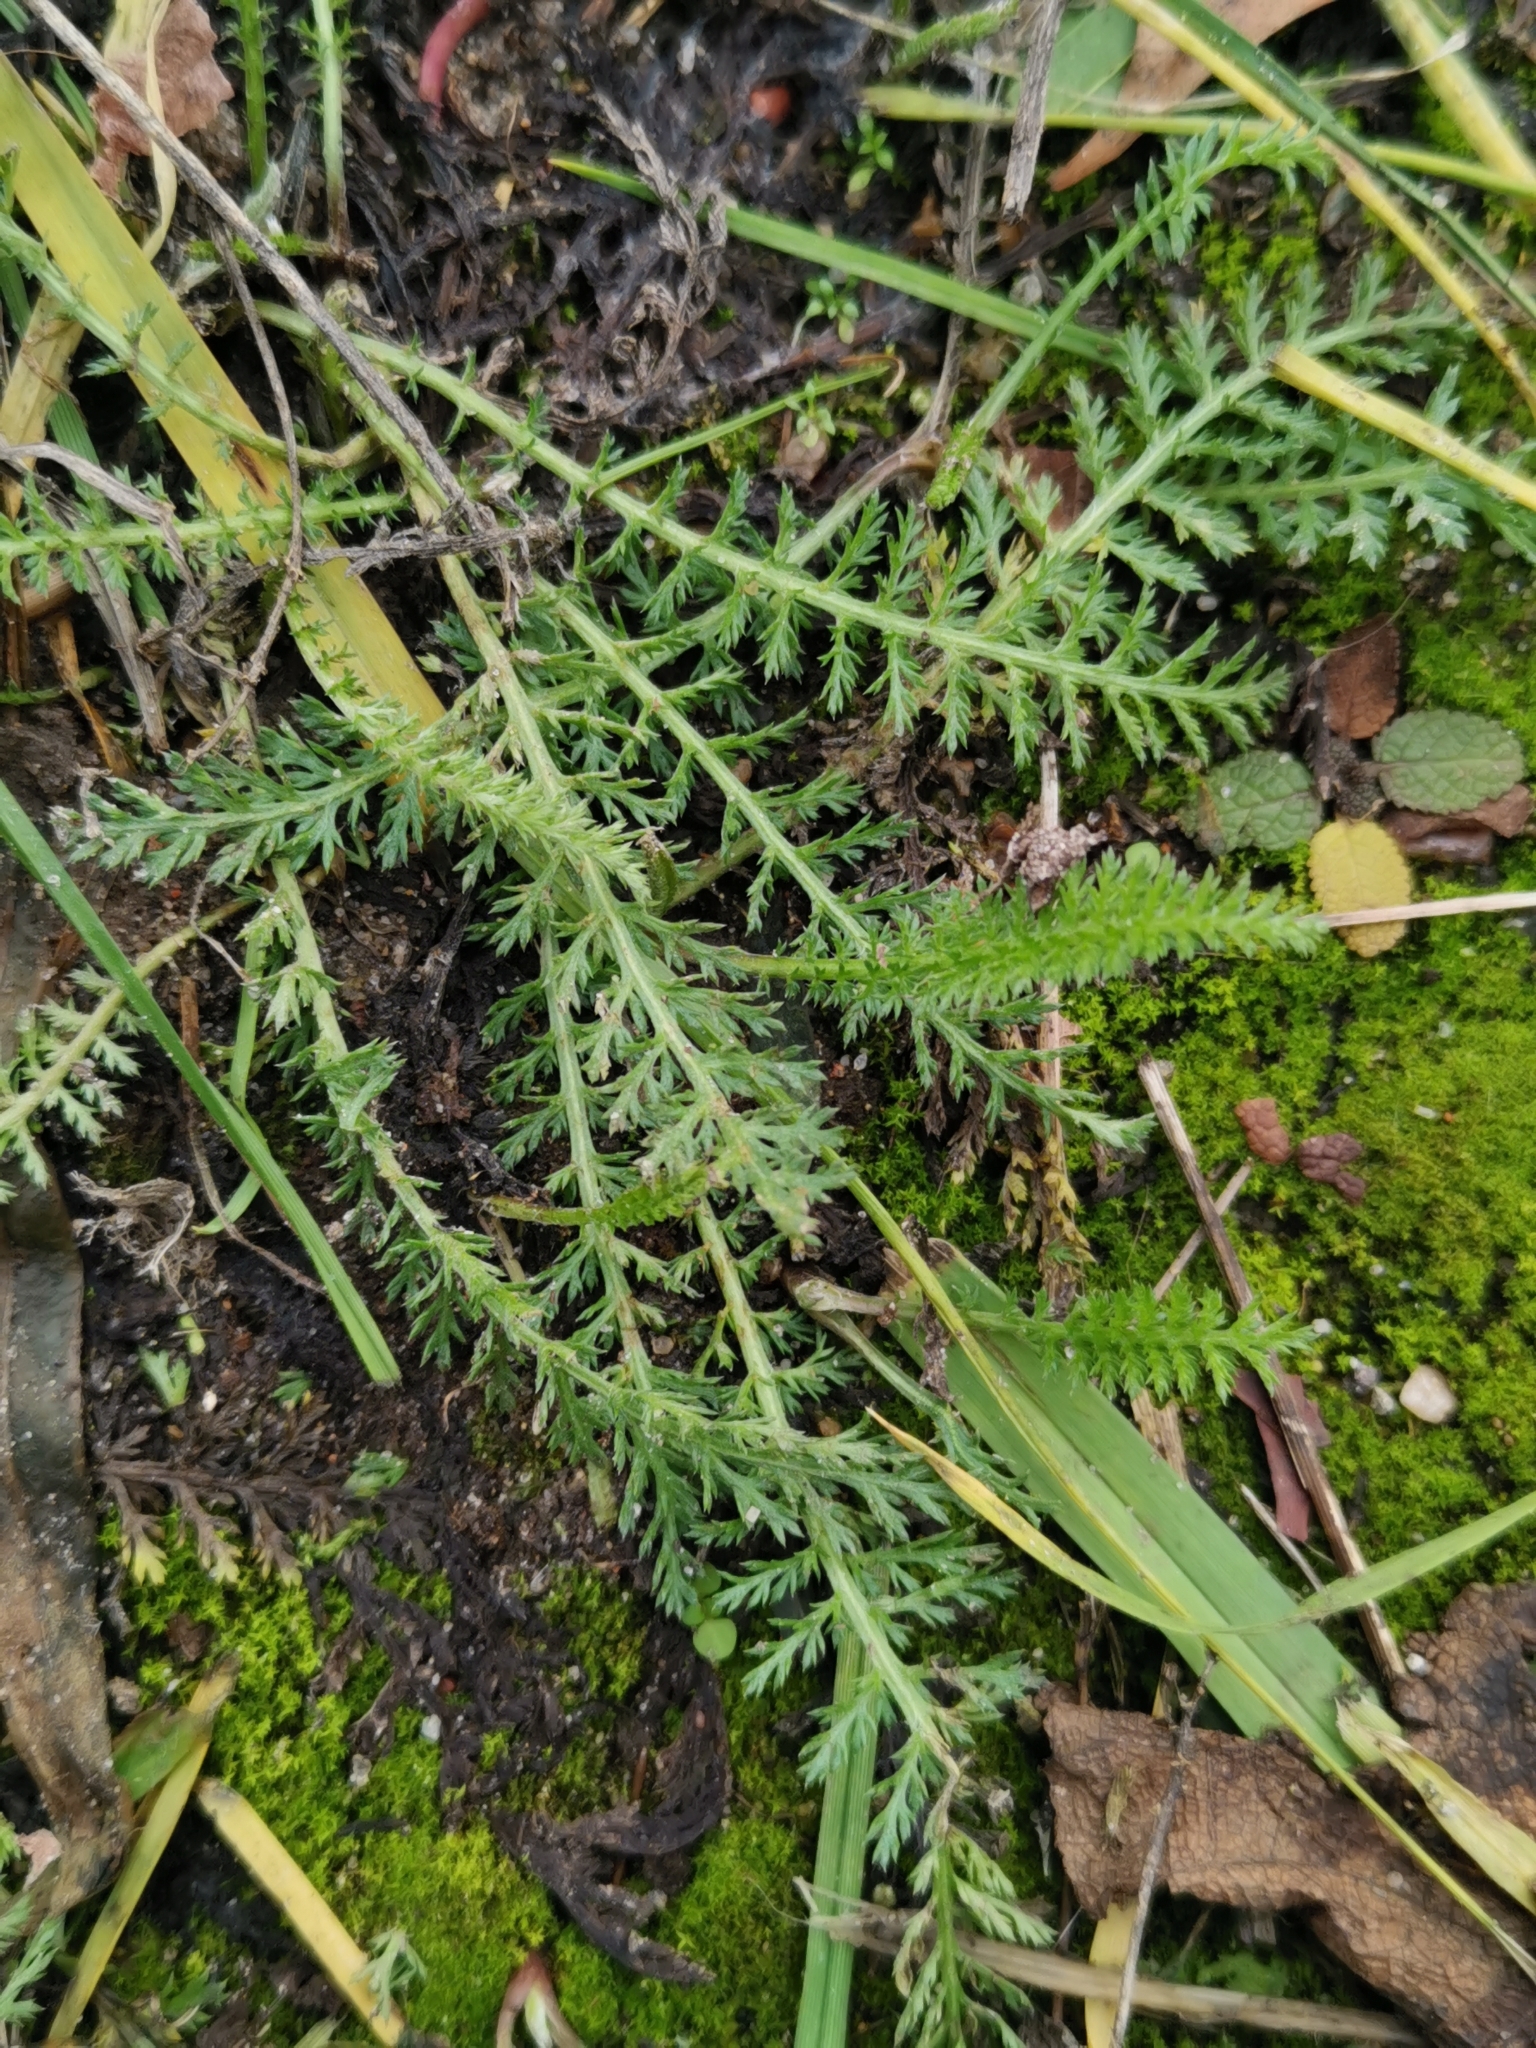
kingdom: Plantae
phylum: Tracheophyta
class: Magnoliopsida
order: Asterales
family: Asteraceae
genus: Achillea
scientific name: Achillea millefolium
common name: Yarrow
